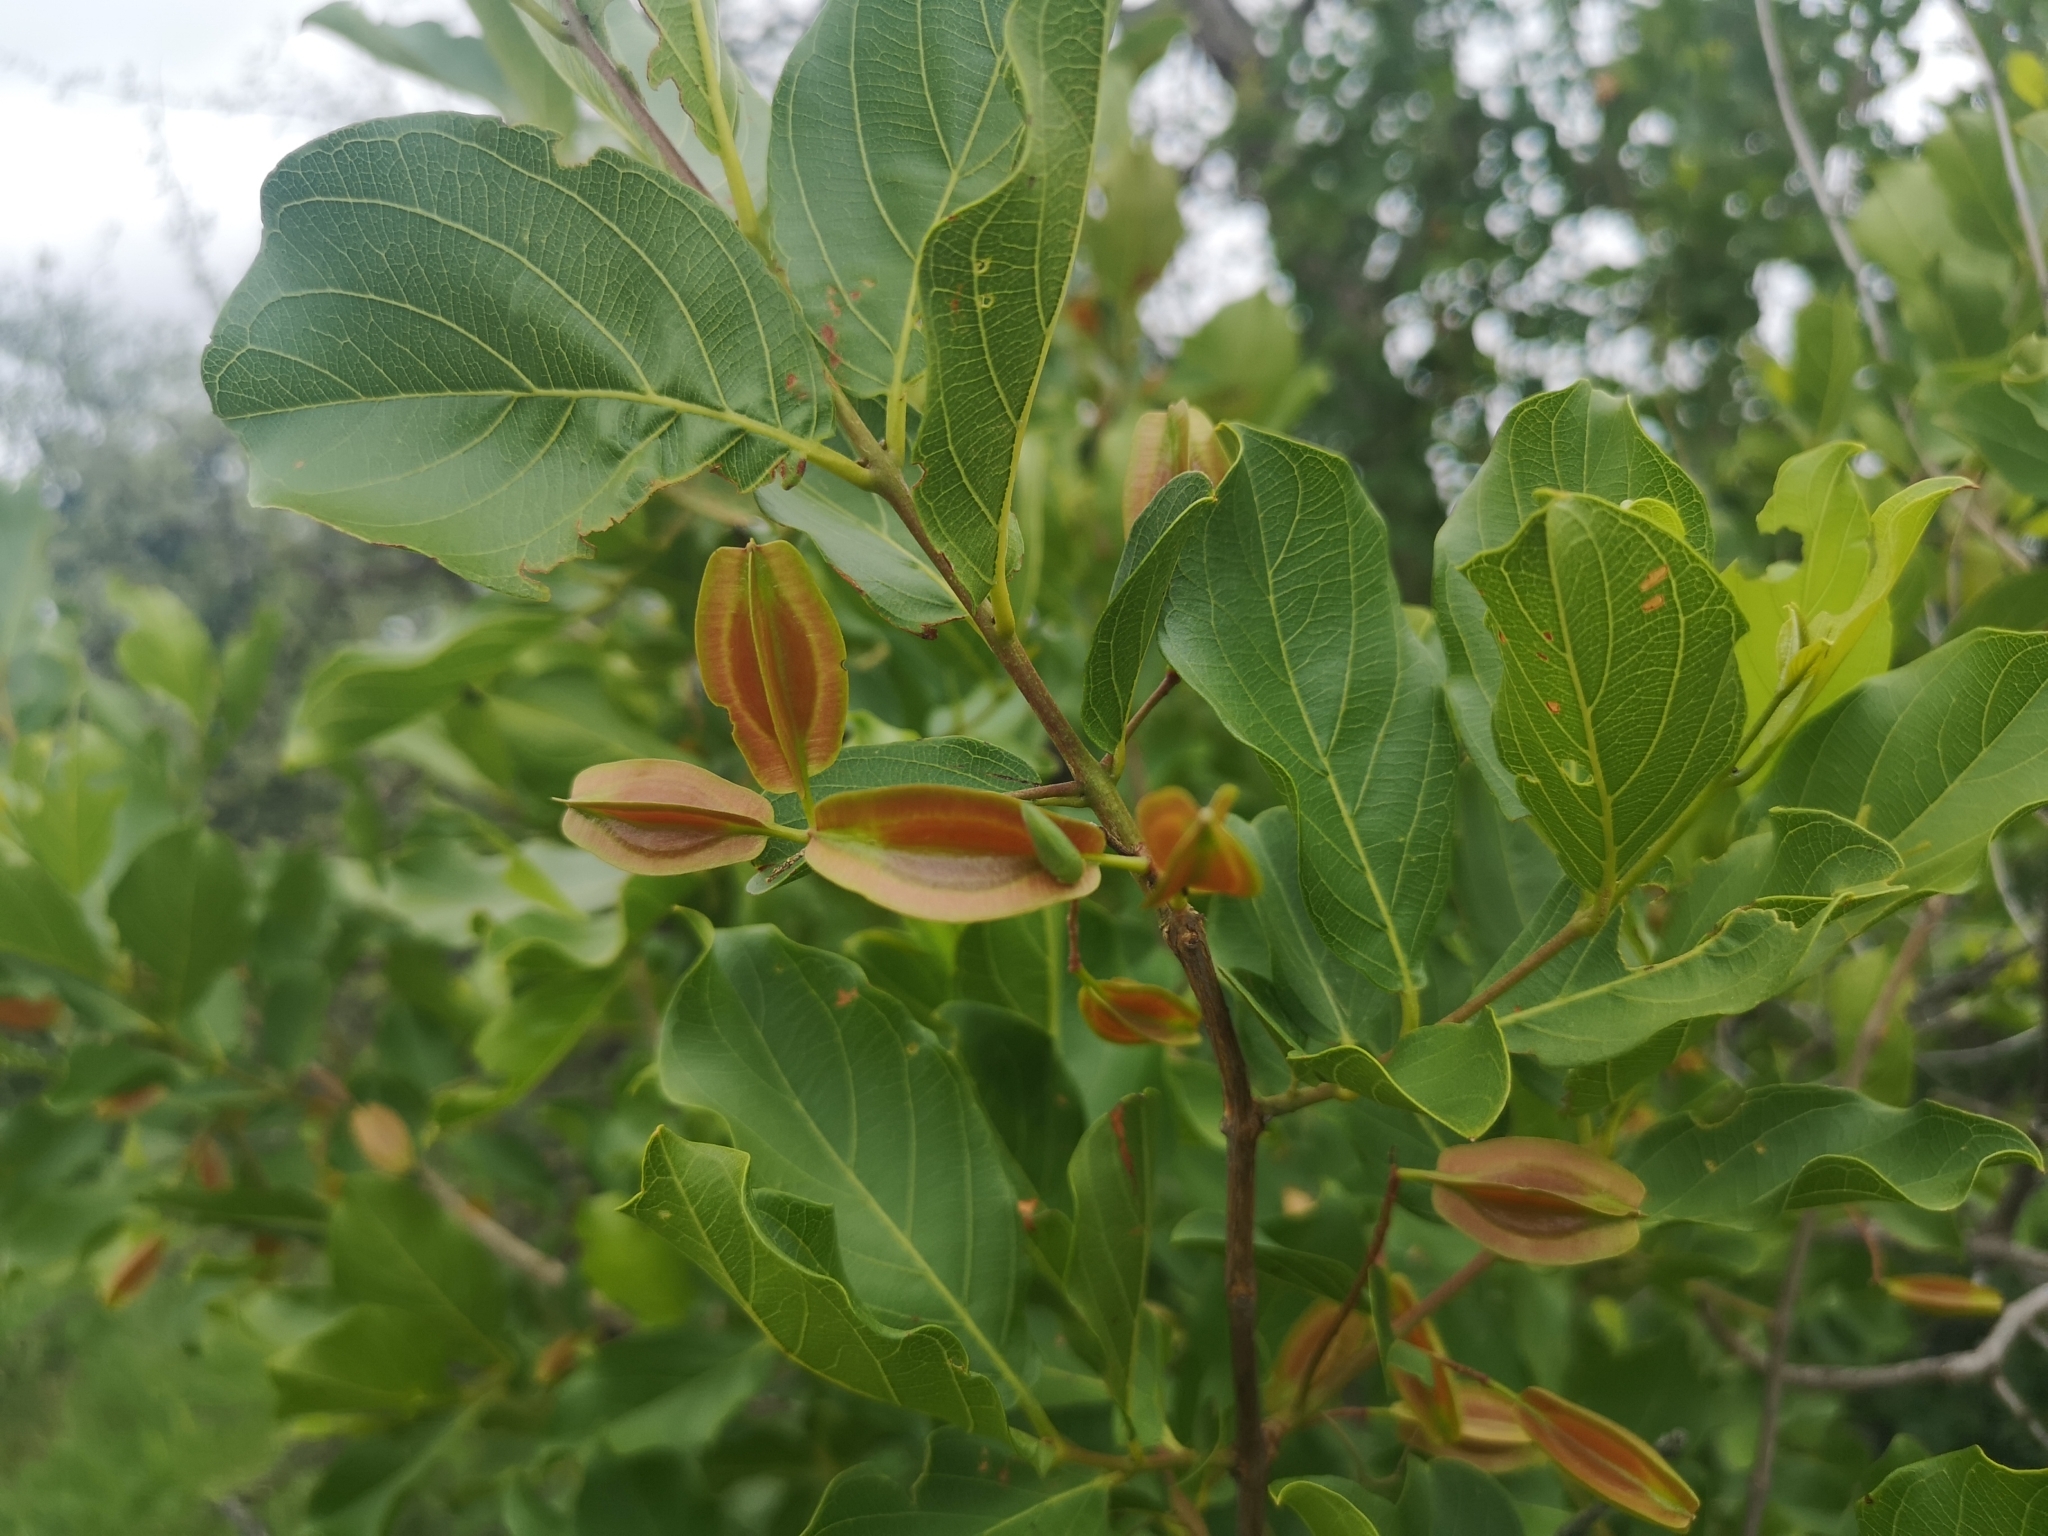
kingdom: Plantae
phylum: Tracheophyta
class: Magnoliopsida
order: Myrtales
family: Combretaceae
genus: Combretum
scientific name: Combretum apiculatum
